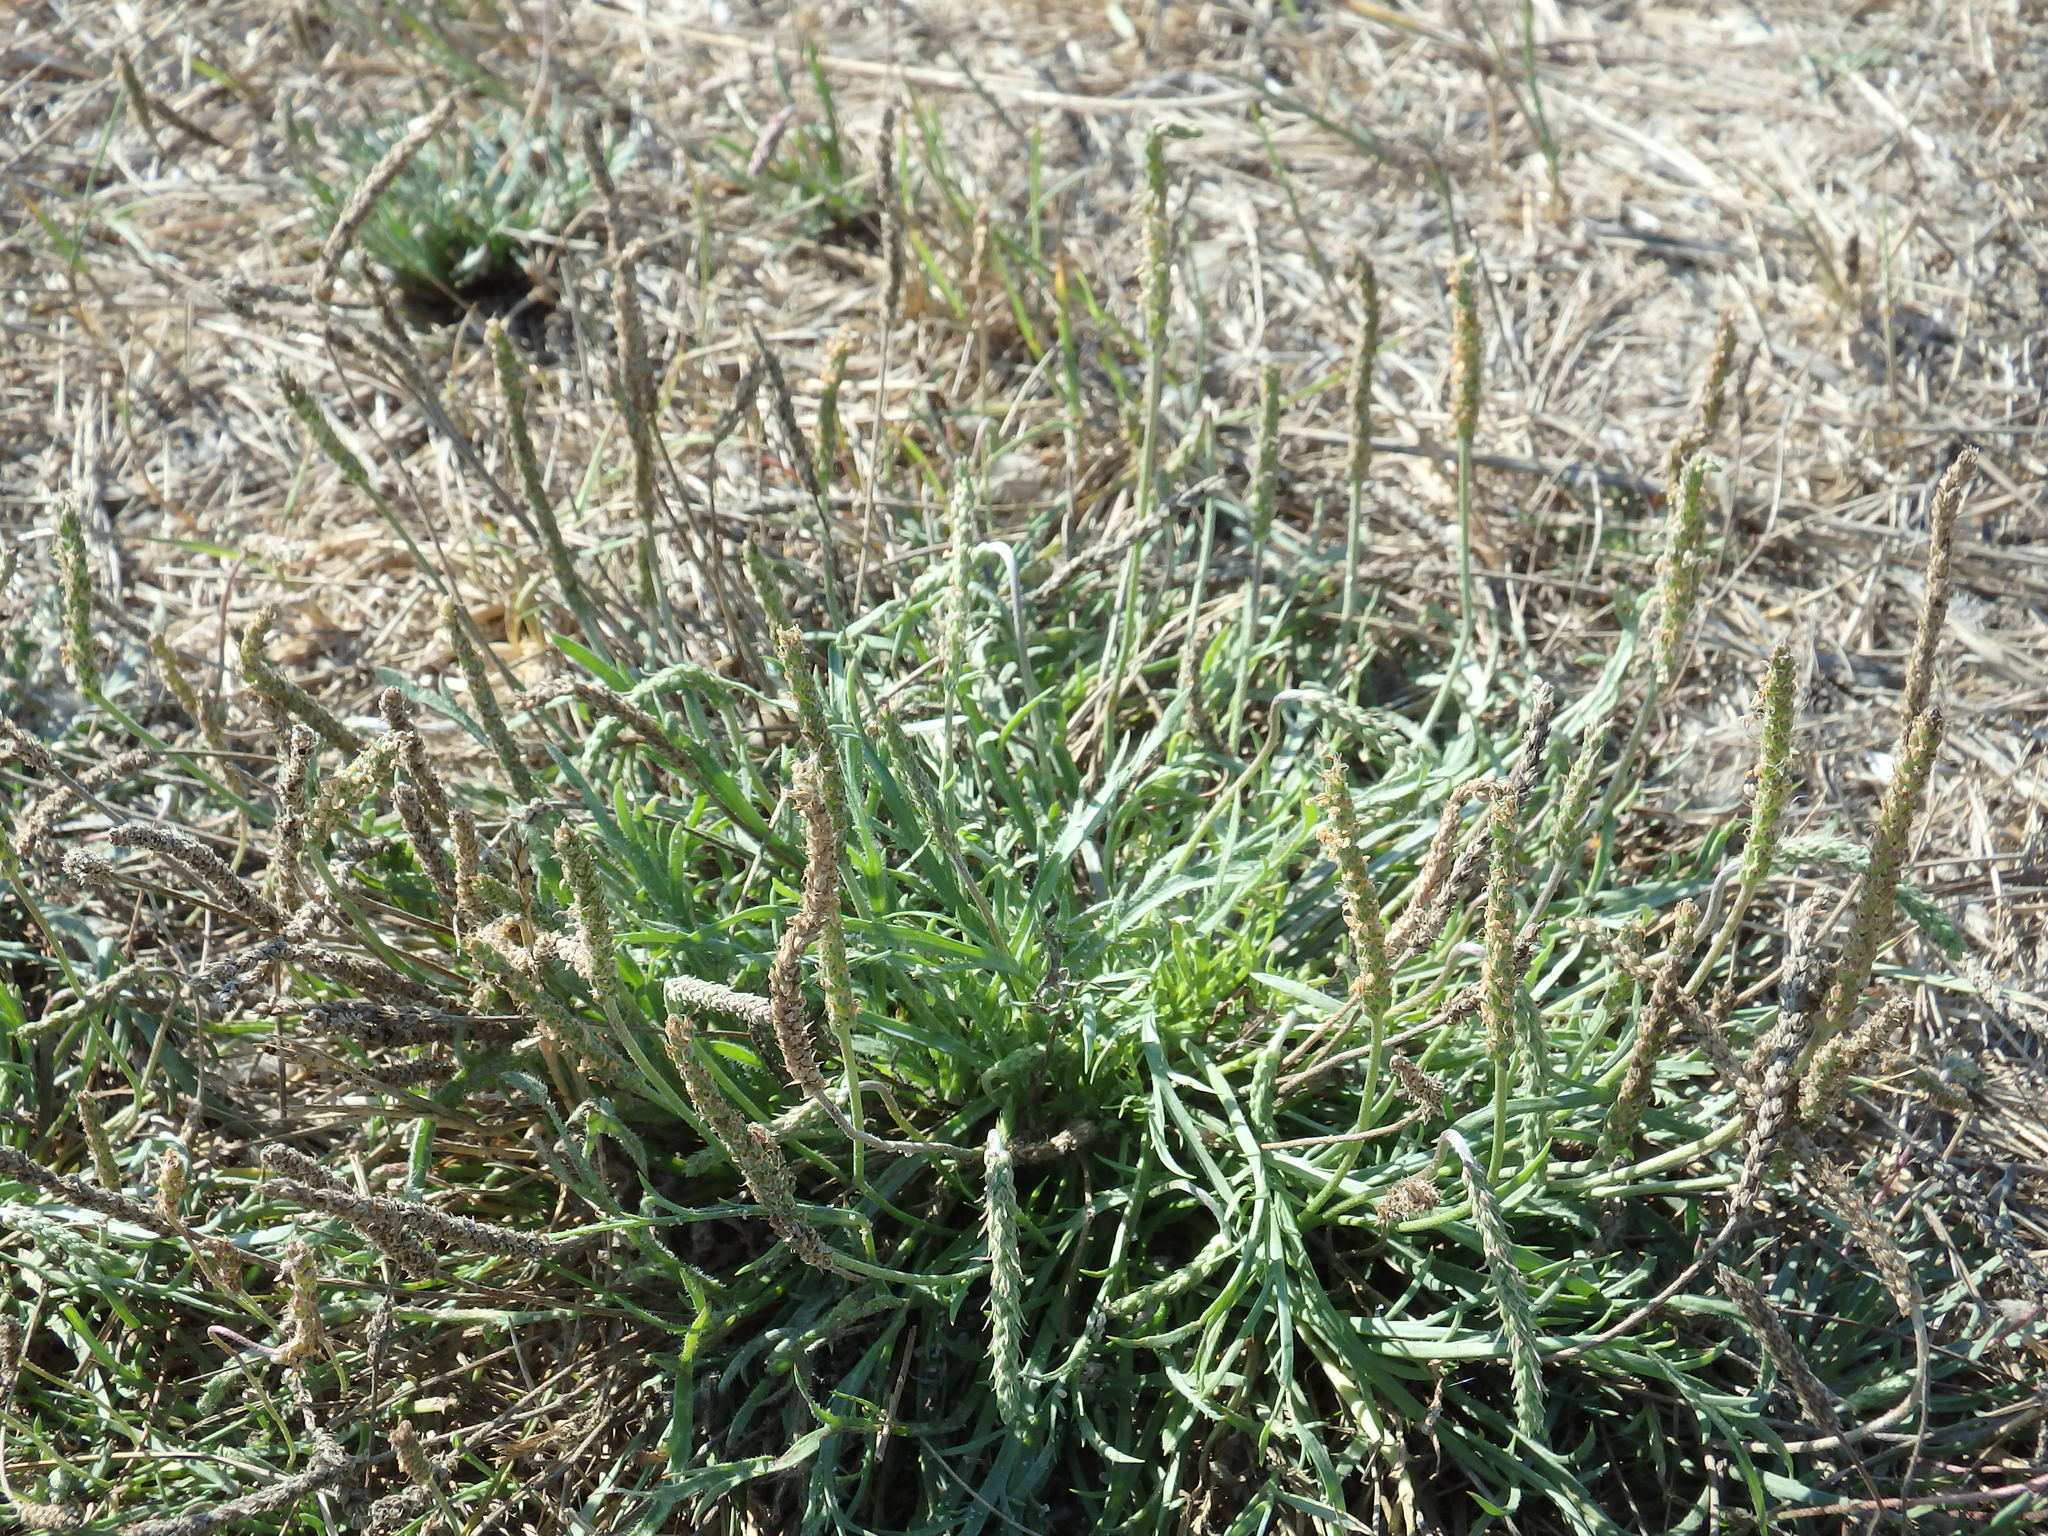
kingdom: Plantae
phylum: Tracheophyta
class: Magnoliopsida
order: Lamiales
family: Plantaginaceae
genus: Plantago
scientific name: Plantago coronopus
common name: Buck's-horn plantain
